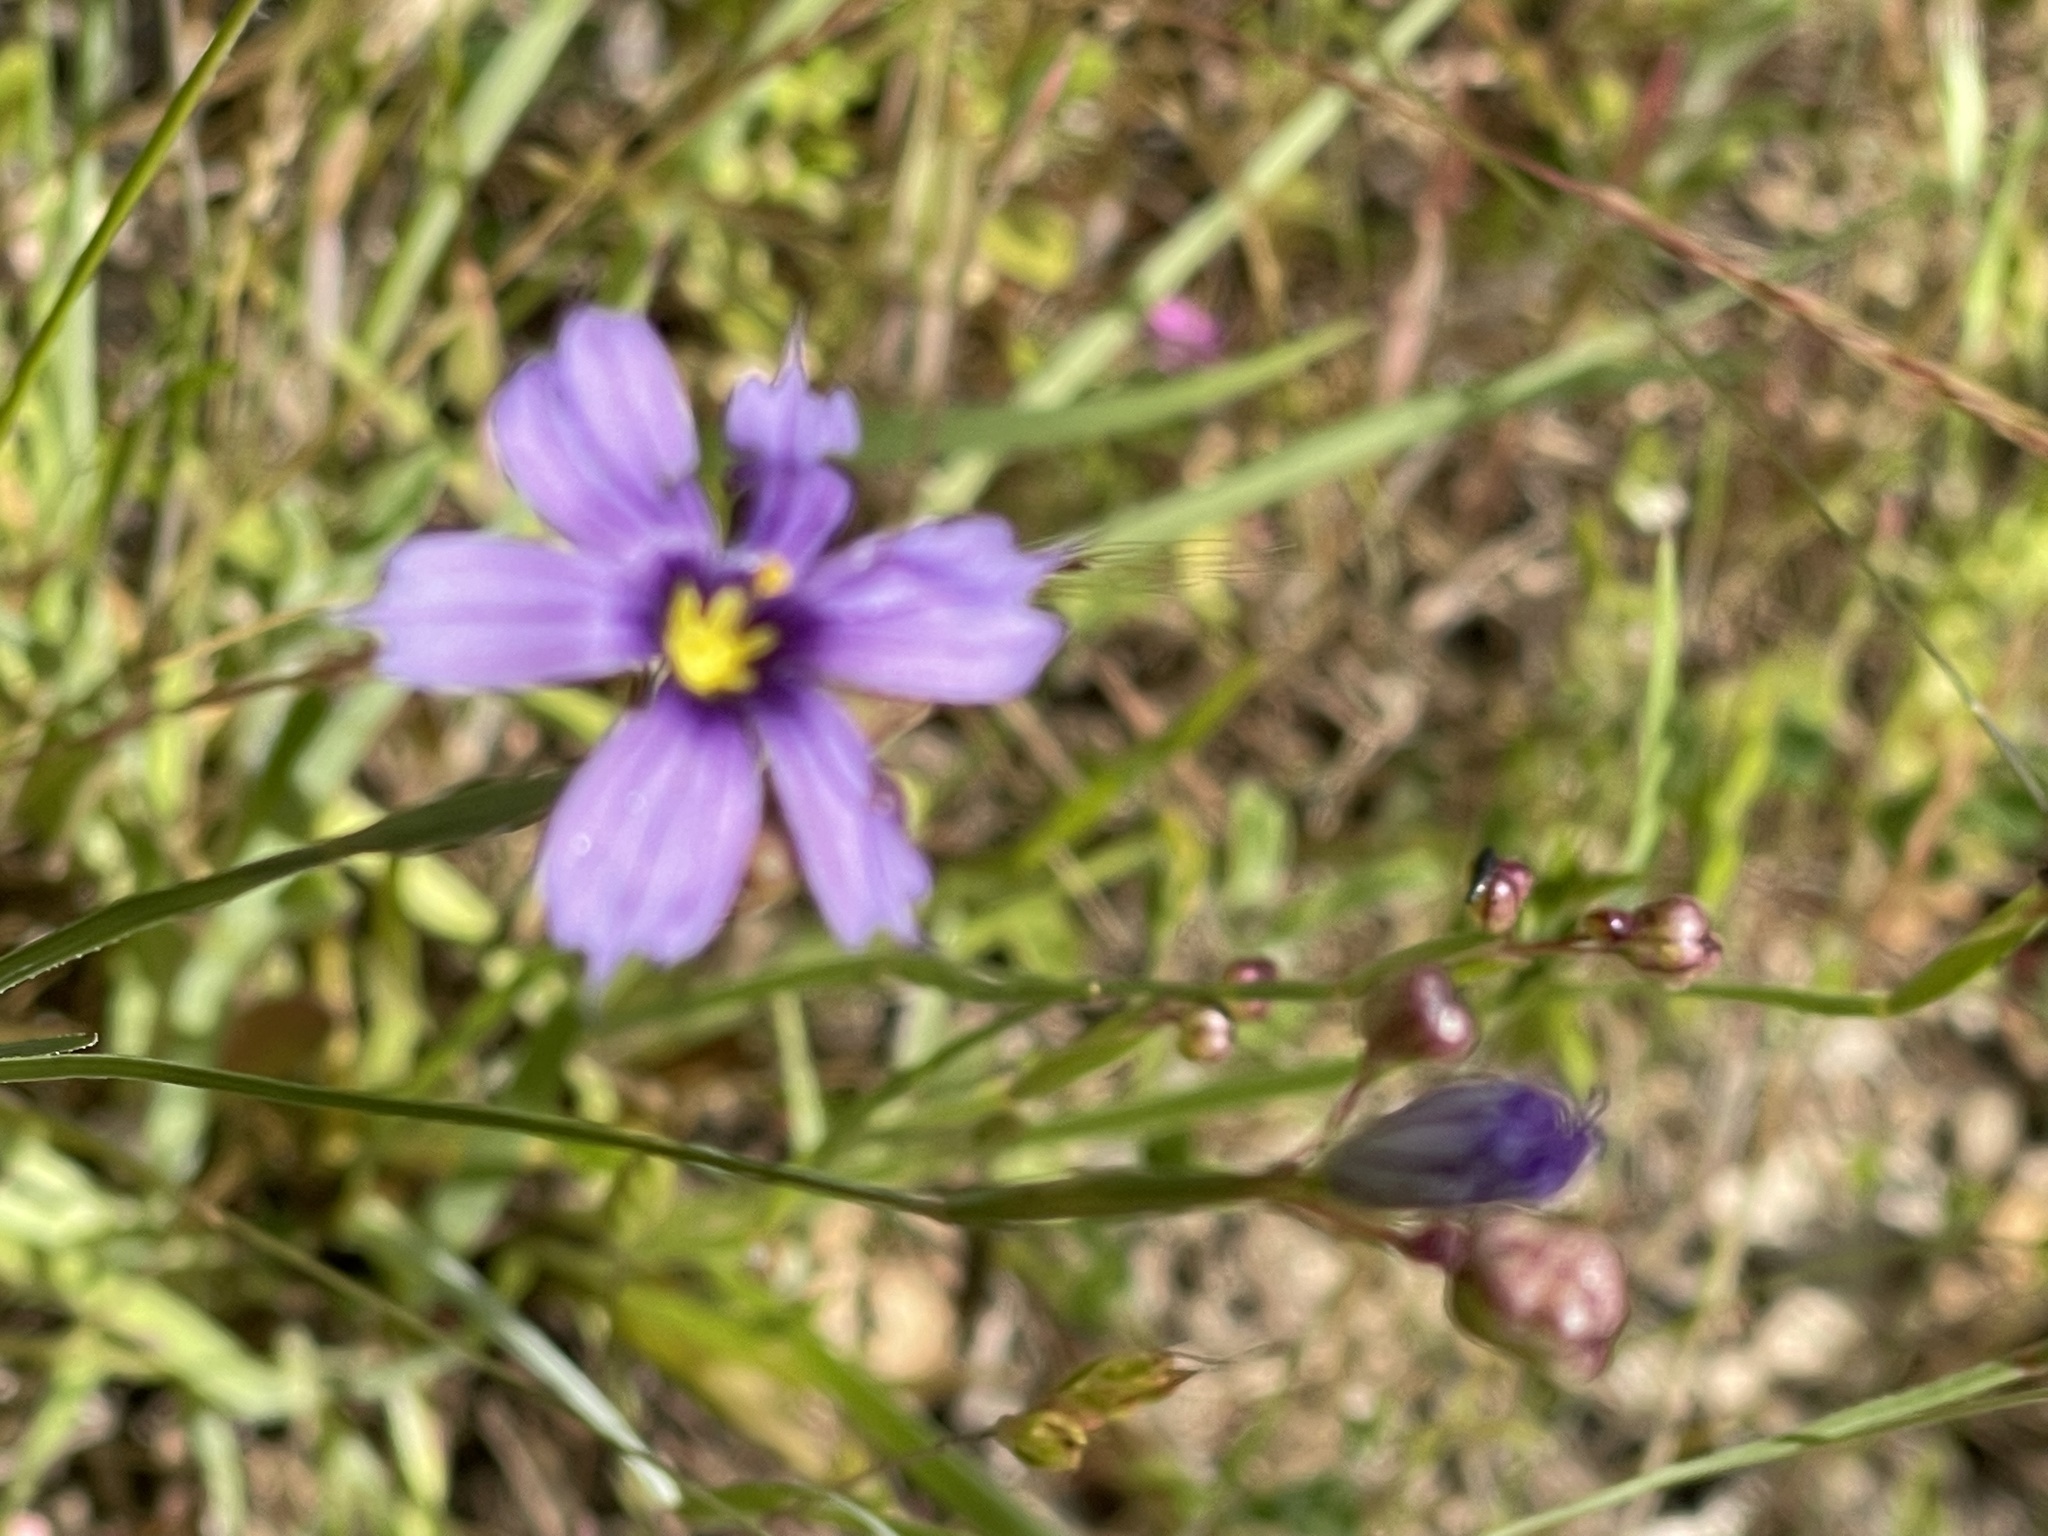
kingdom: Plantae
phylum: Tracheophyta
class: Liliopsida
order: Asparagales
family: Iridaceae
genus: Sisyrinchium
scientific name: Sisyrinchium bellum
